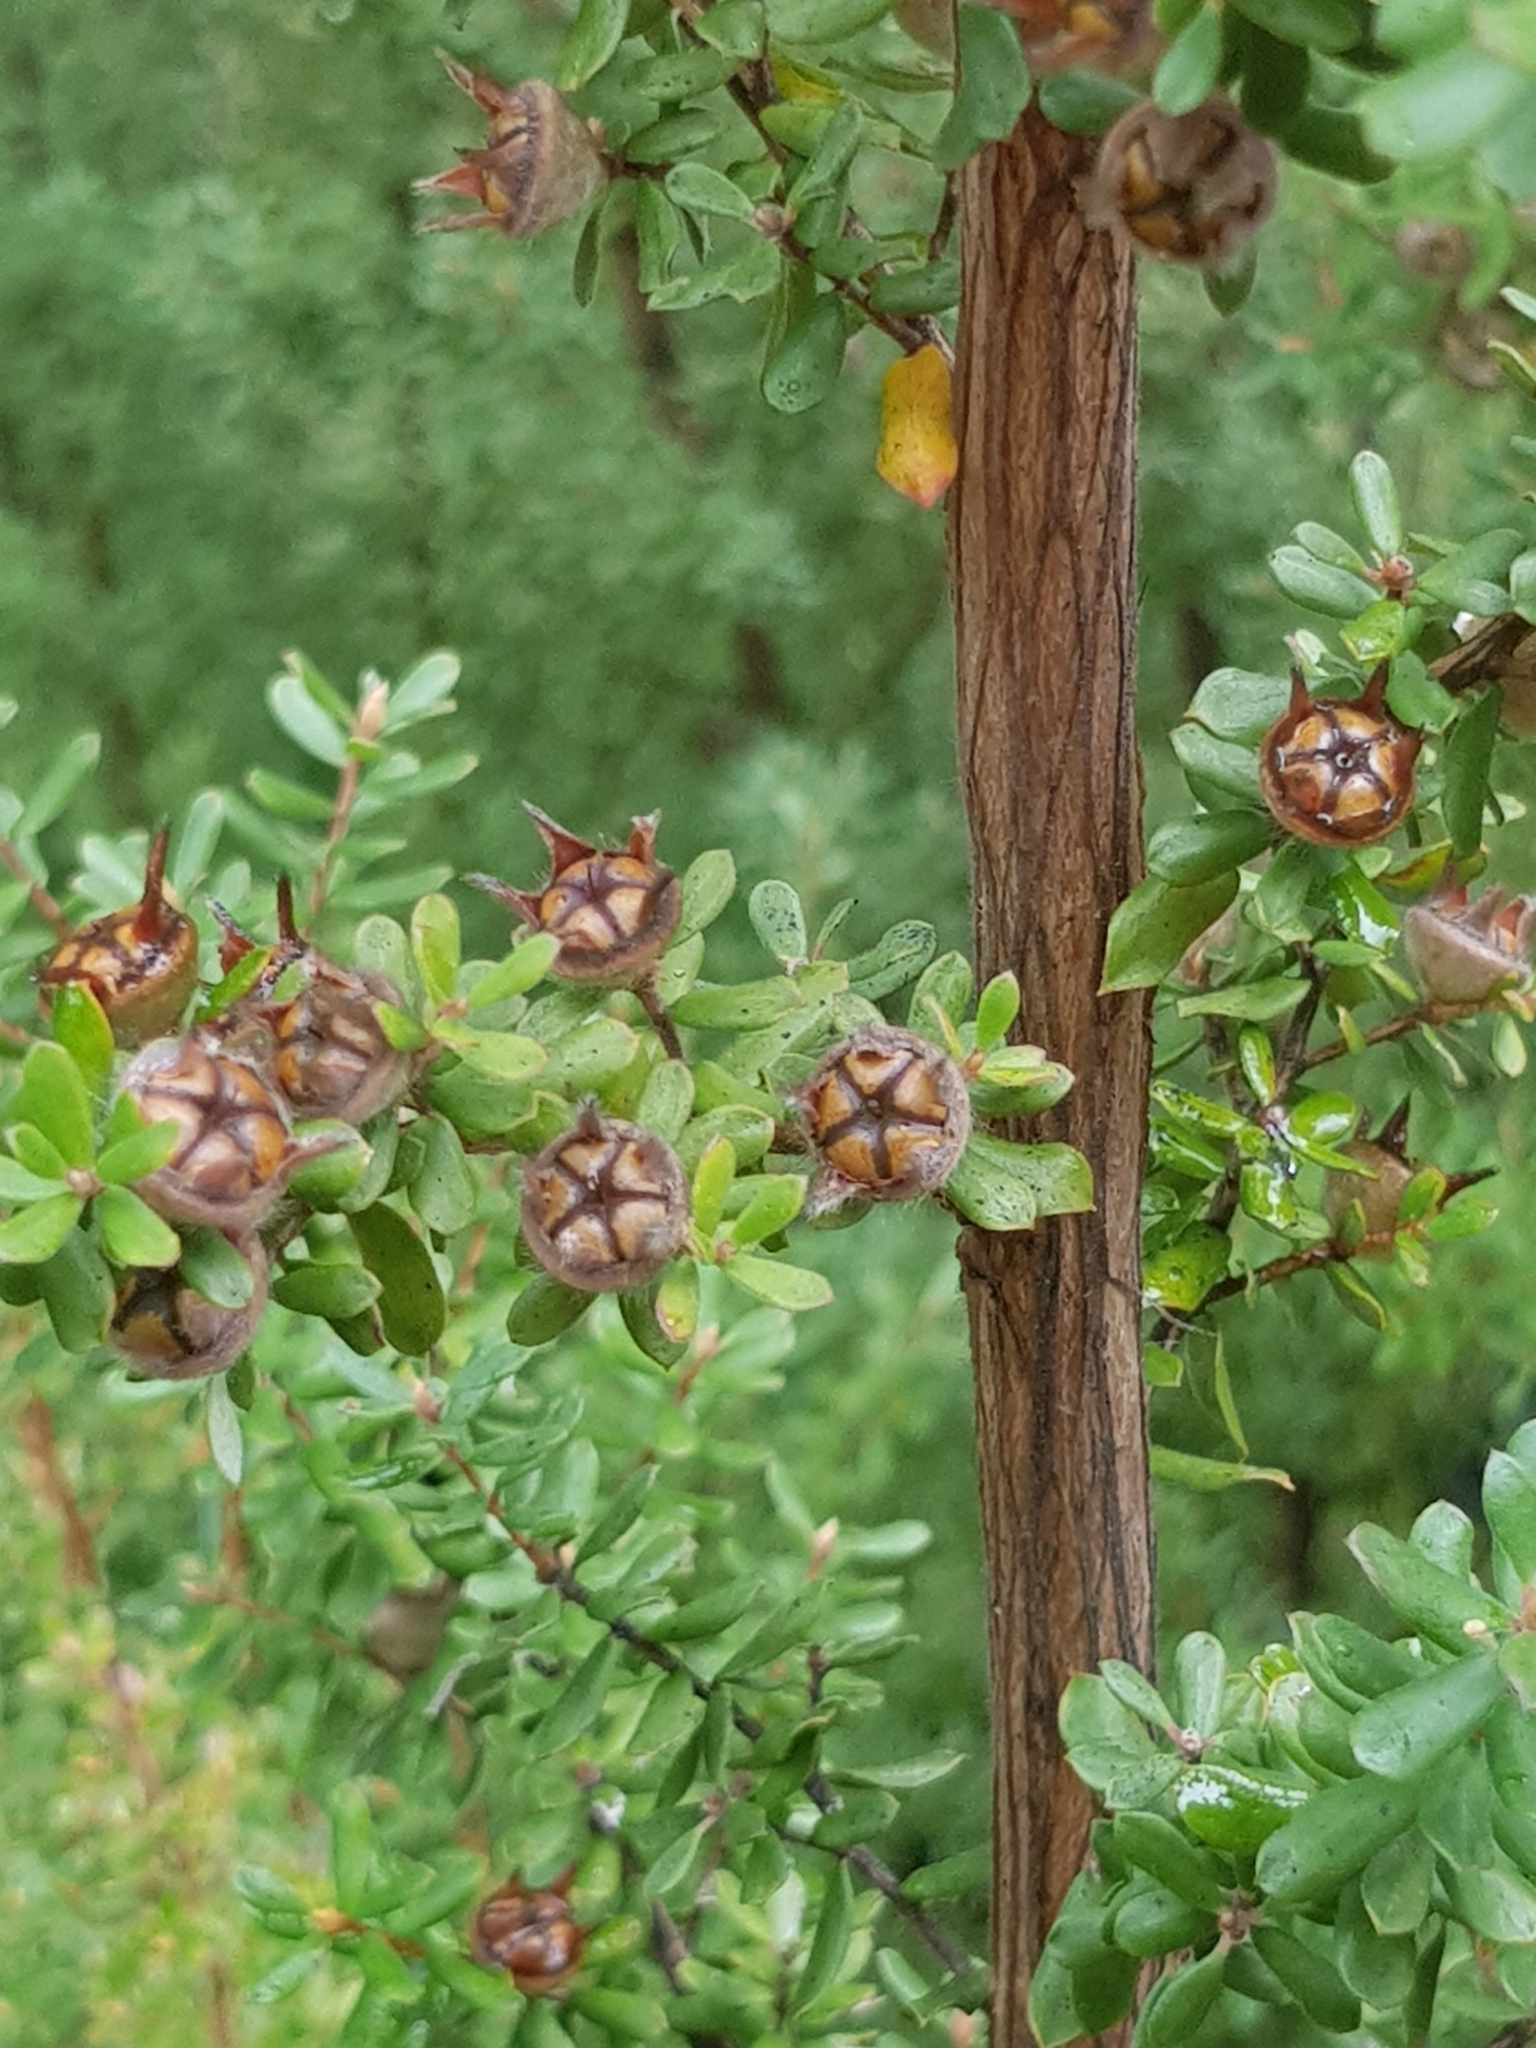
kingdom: Plantae
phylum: Tracheophyta
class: Magnoliopsida
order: Myrtales
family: Myrtaceae
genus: Leptospermum
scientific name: Leptospermum lanigerum
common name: Woolly tea-tree
